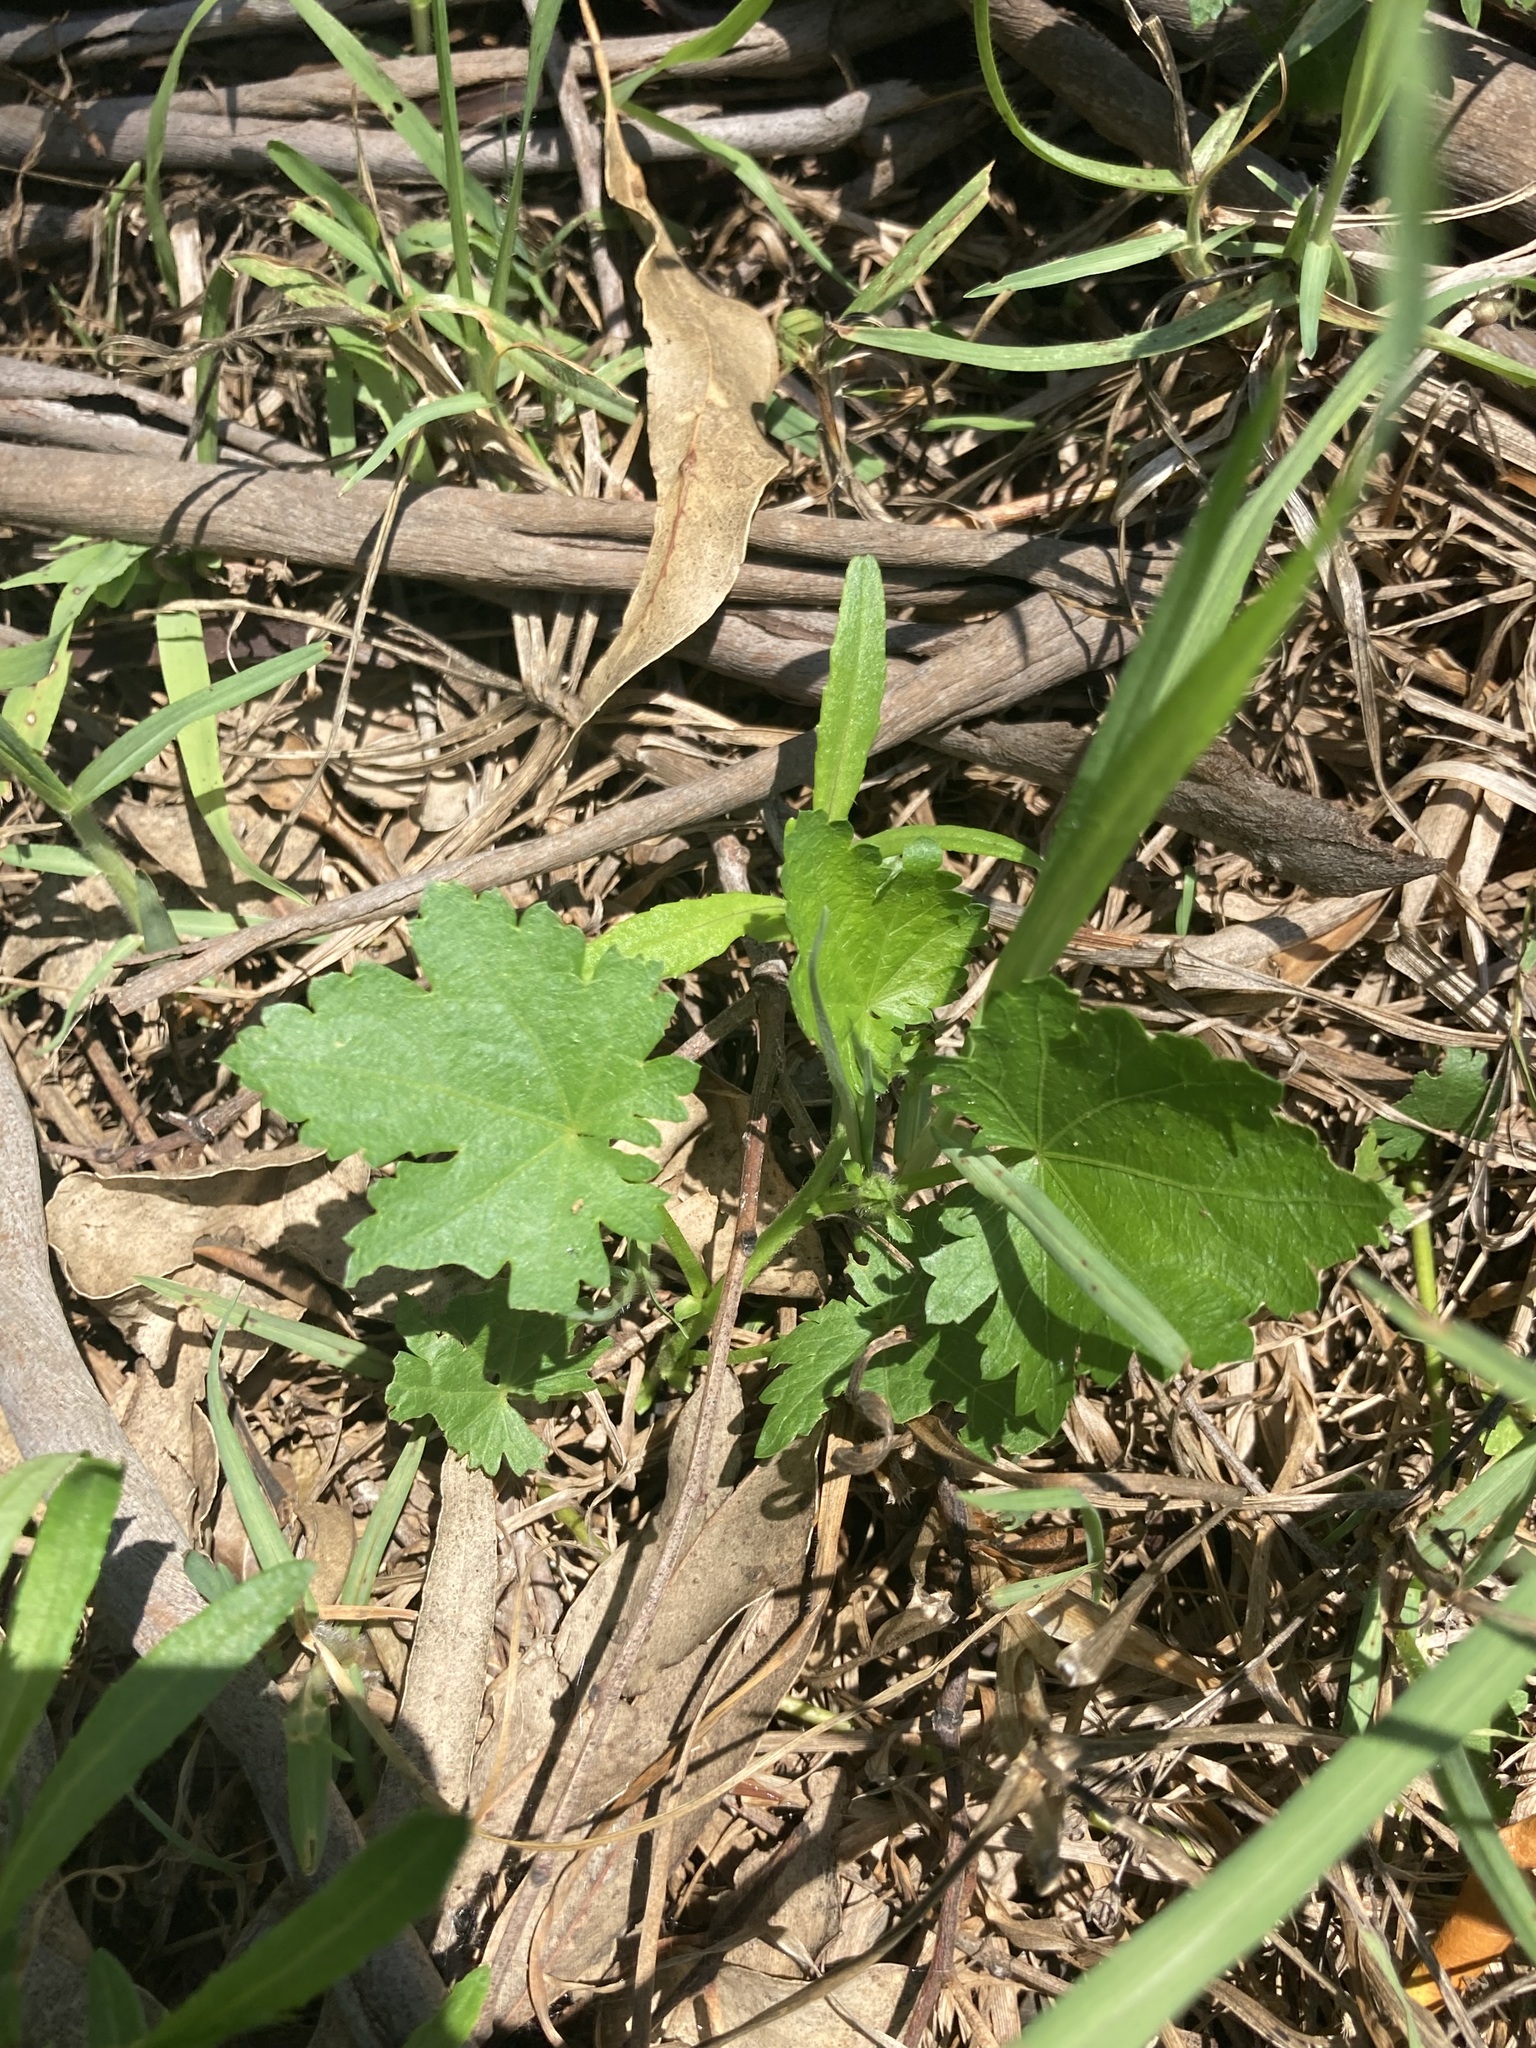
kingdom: Plantae
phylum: Tracheophyta
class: Magnoliopsida
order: Malvales
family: Malvaceae
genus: Modiola
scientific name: Modiola caroliniana
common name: Carolina bristlemallow
